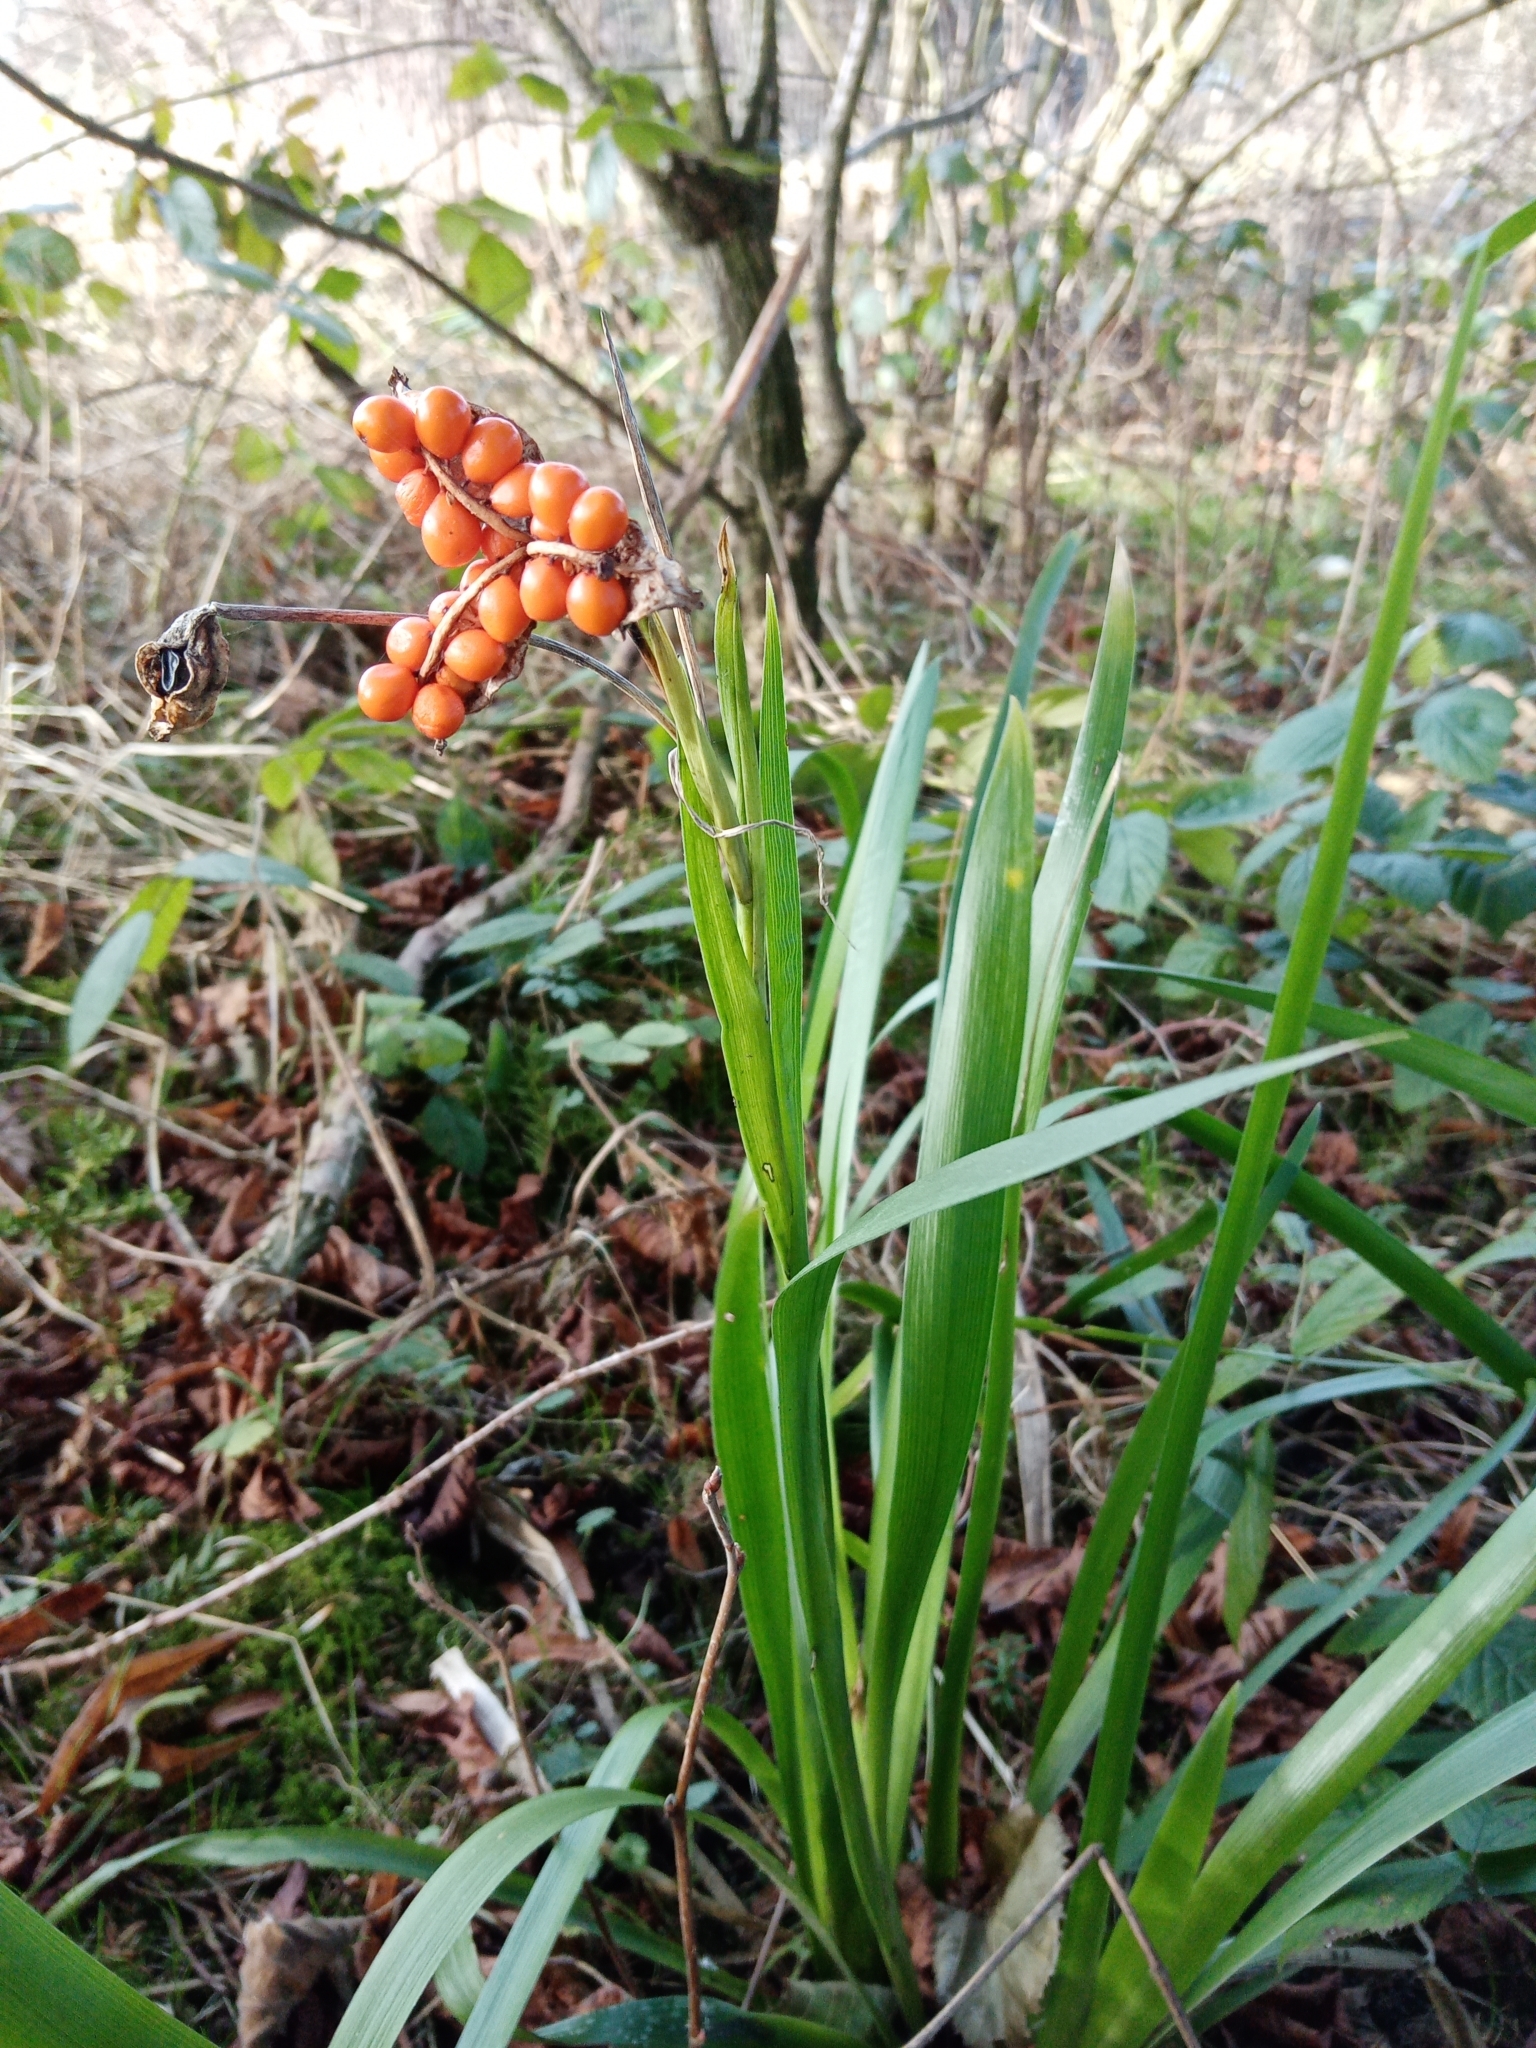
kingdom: Plantae
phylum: Tracheophyta
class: Liliopsida
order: Asparagales
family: Iridaceae
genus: Iris
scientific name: Iris foetidissima
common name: Stinking iris
